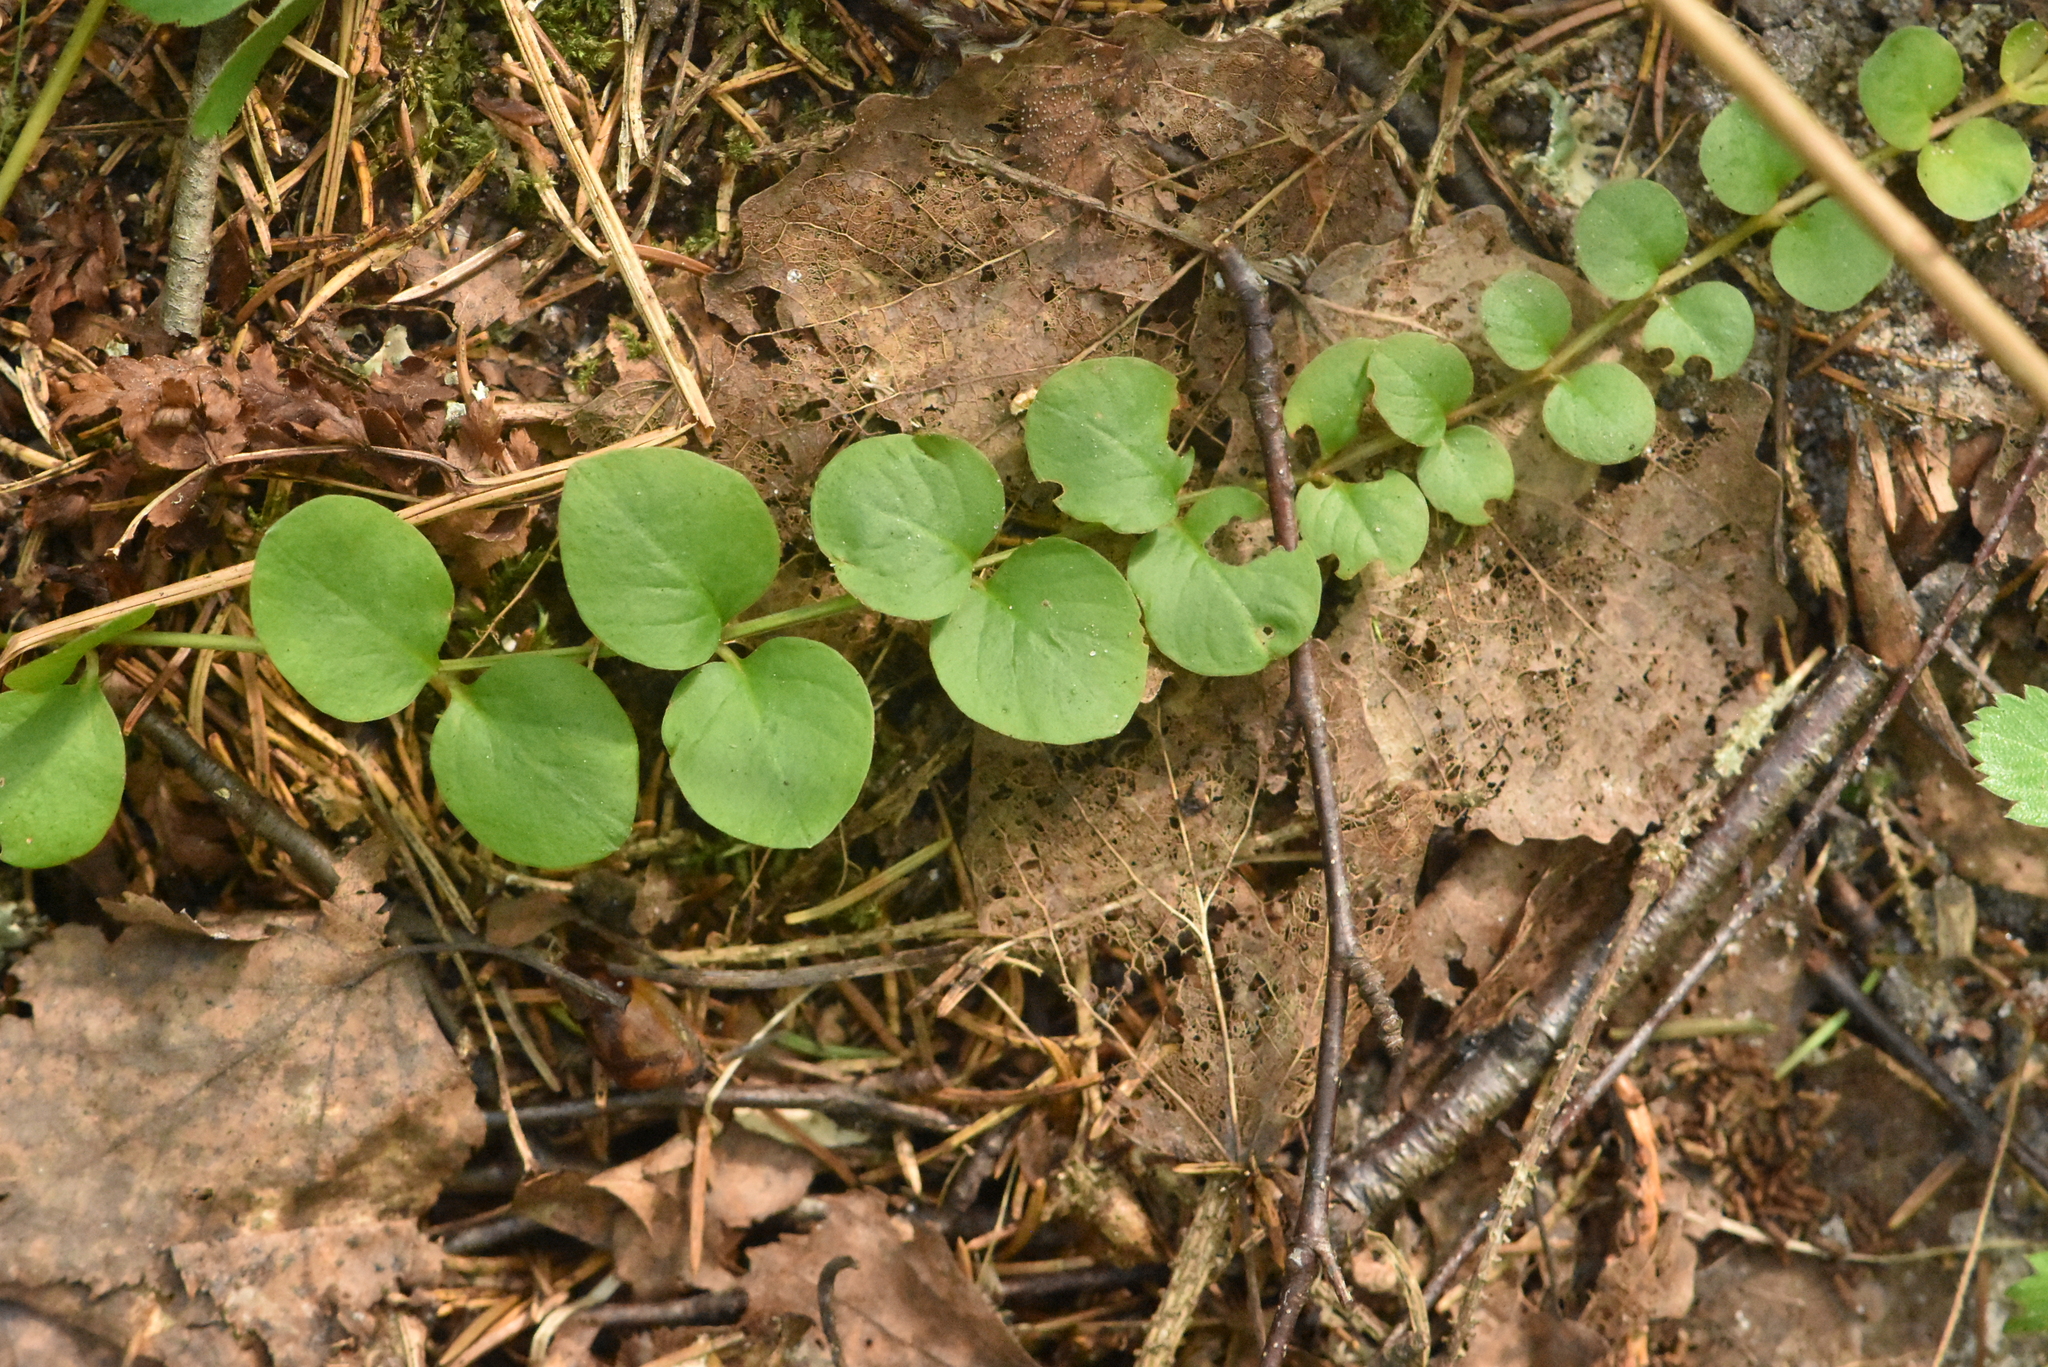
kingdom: Plantae
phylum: Tracheophyta
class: Magnoliopsida
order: Ericales
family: Primulaceae
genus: Lysimachia
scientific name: Lysimachia nummularia
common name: Moneywort
